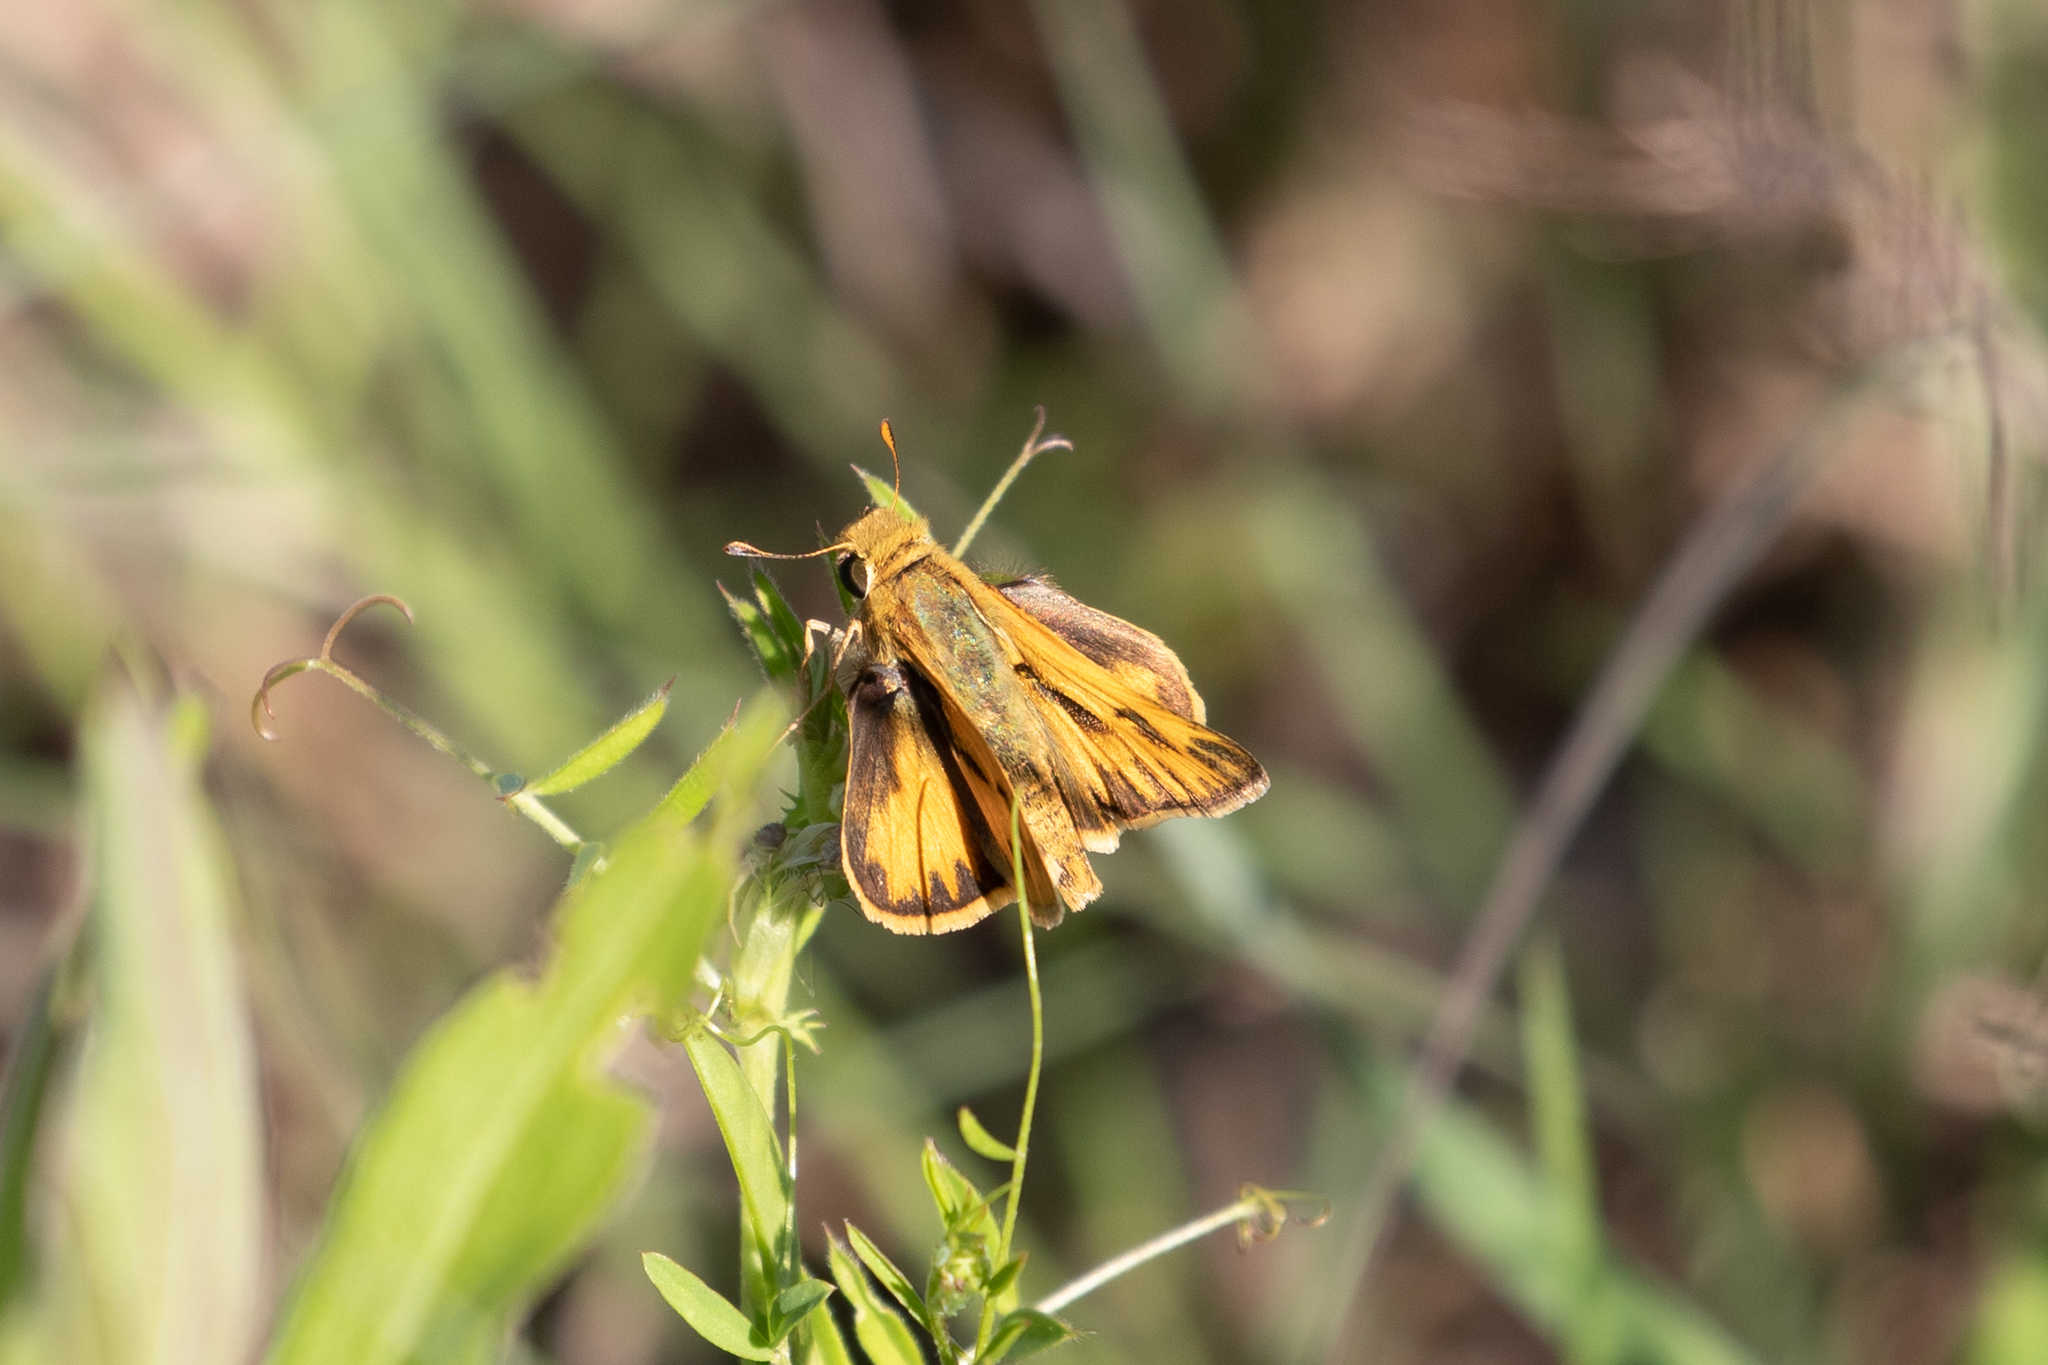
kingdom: Animalia
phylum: Arthropoda
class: Insecta
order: Lepidoptera
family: Hesperiidae
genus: Hylephila
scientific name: Hylephila phyleus
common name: Fiery skipper
